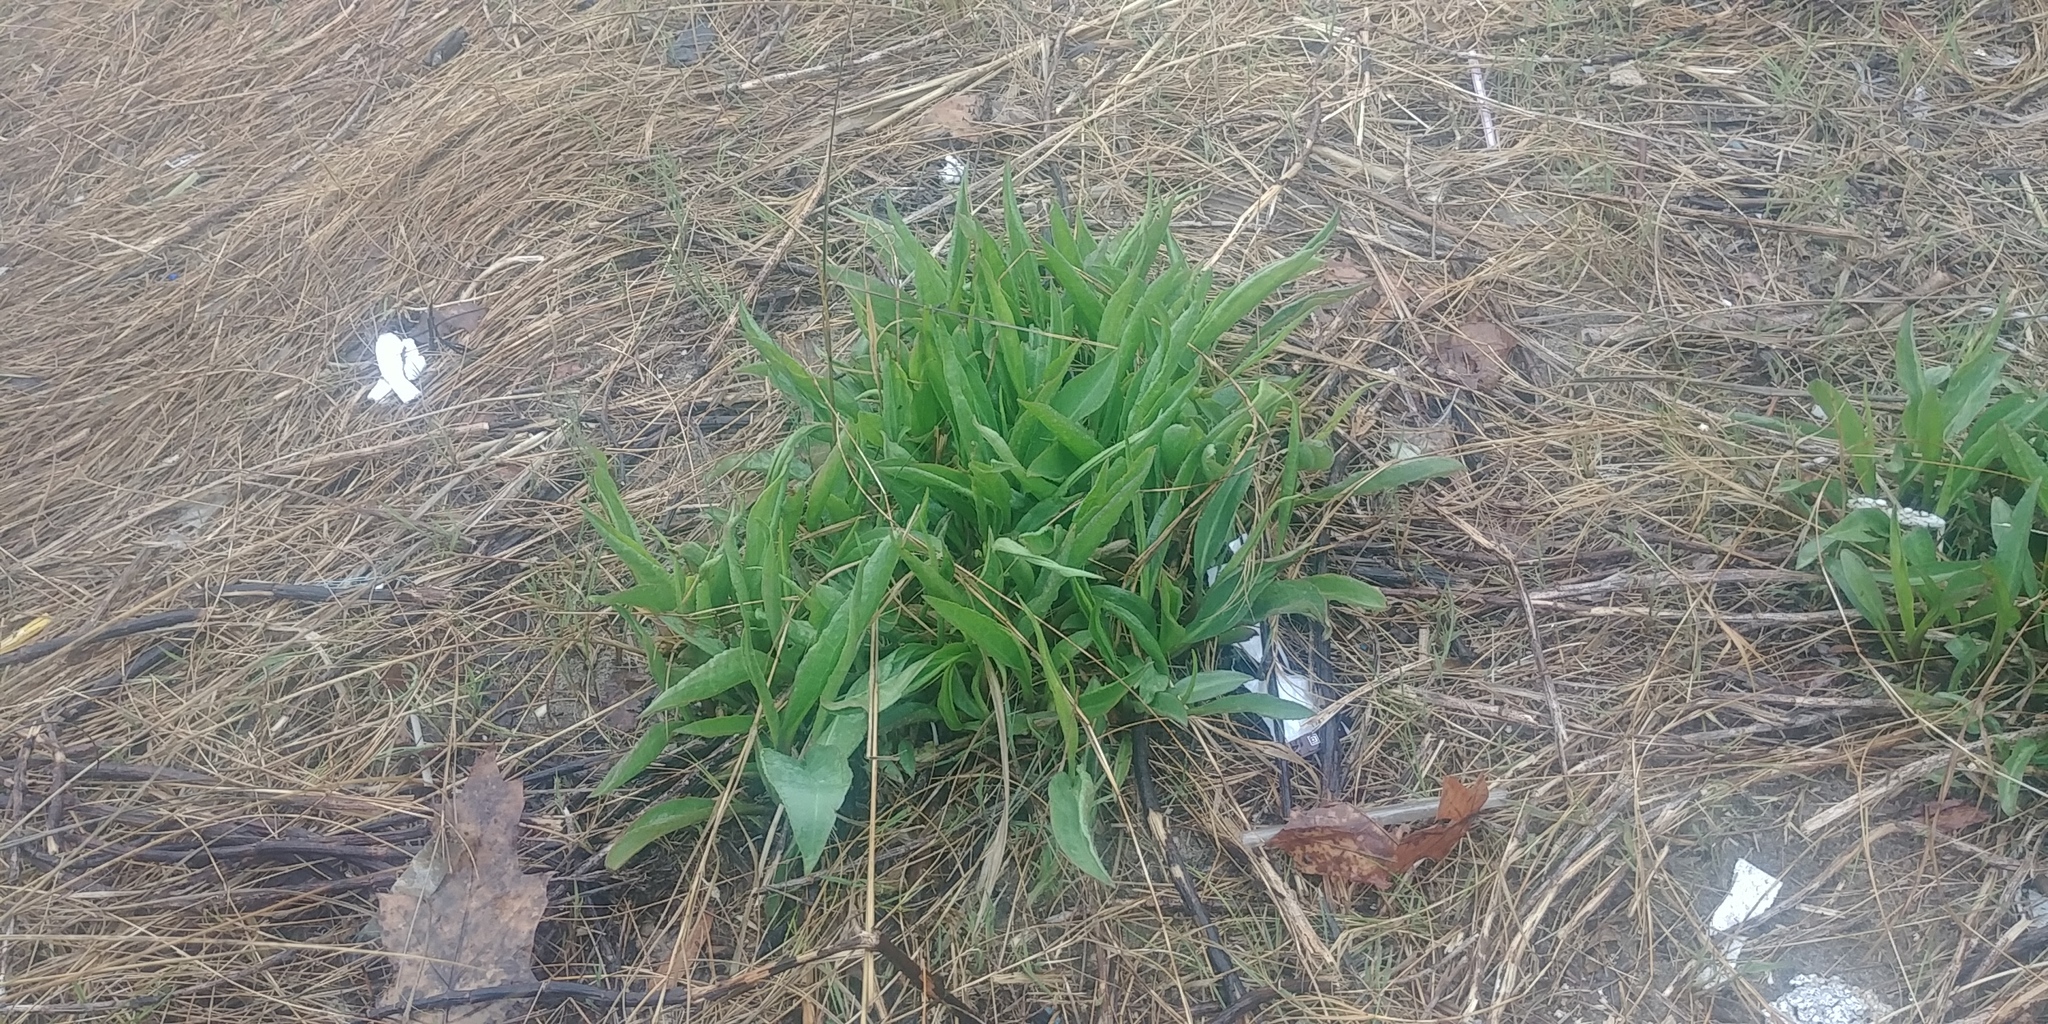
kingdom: Plantae
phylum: Tracheophyta
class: Magnoliopsida
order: Asterales
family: Asteraceae
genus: Solidago
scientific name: Solidago sempervirens
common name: Salt-marsh goldenrod
